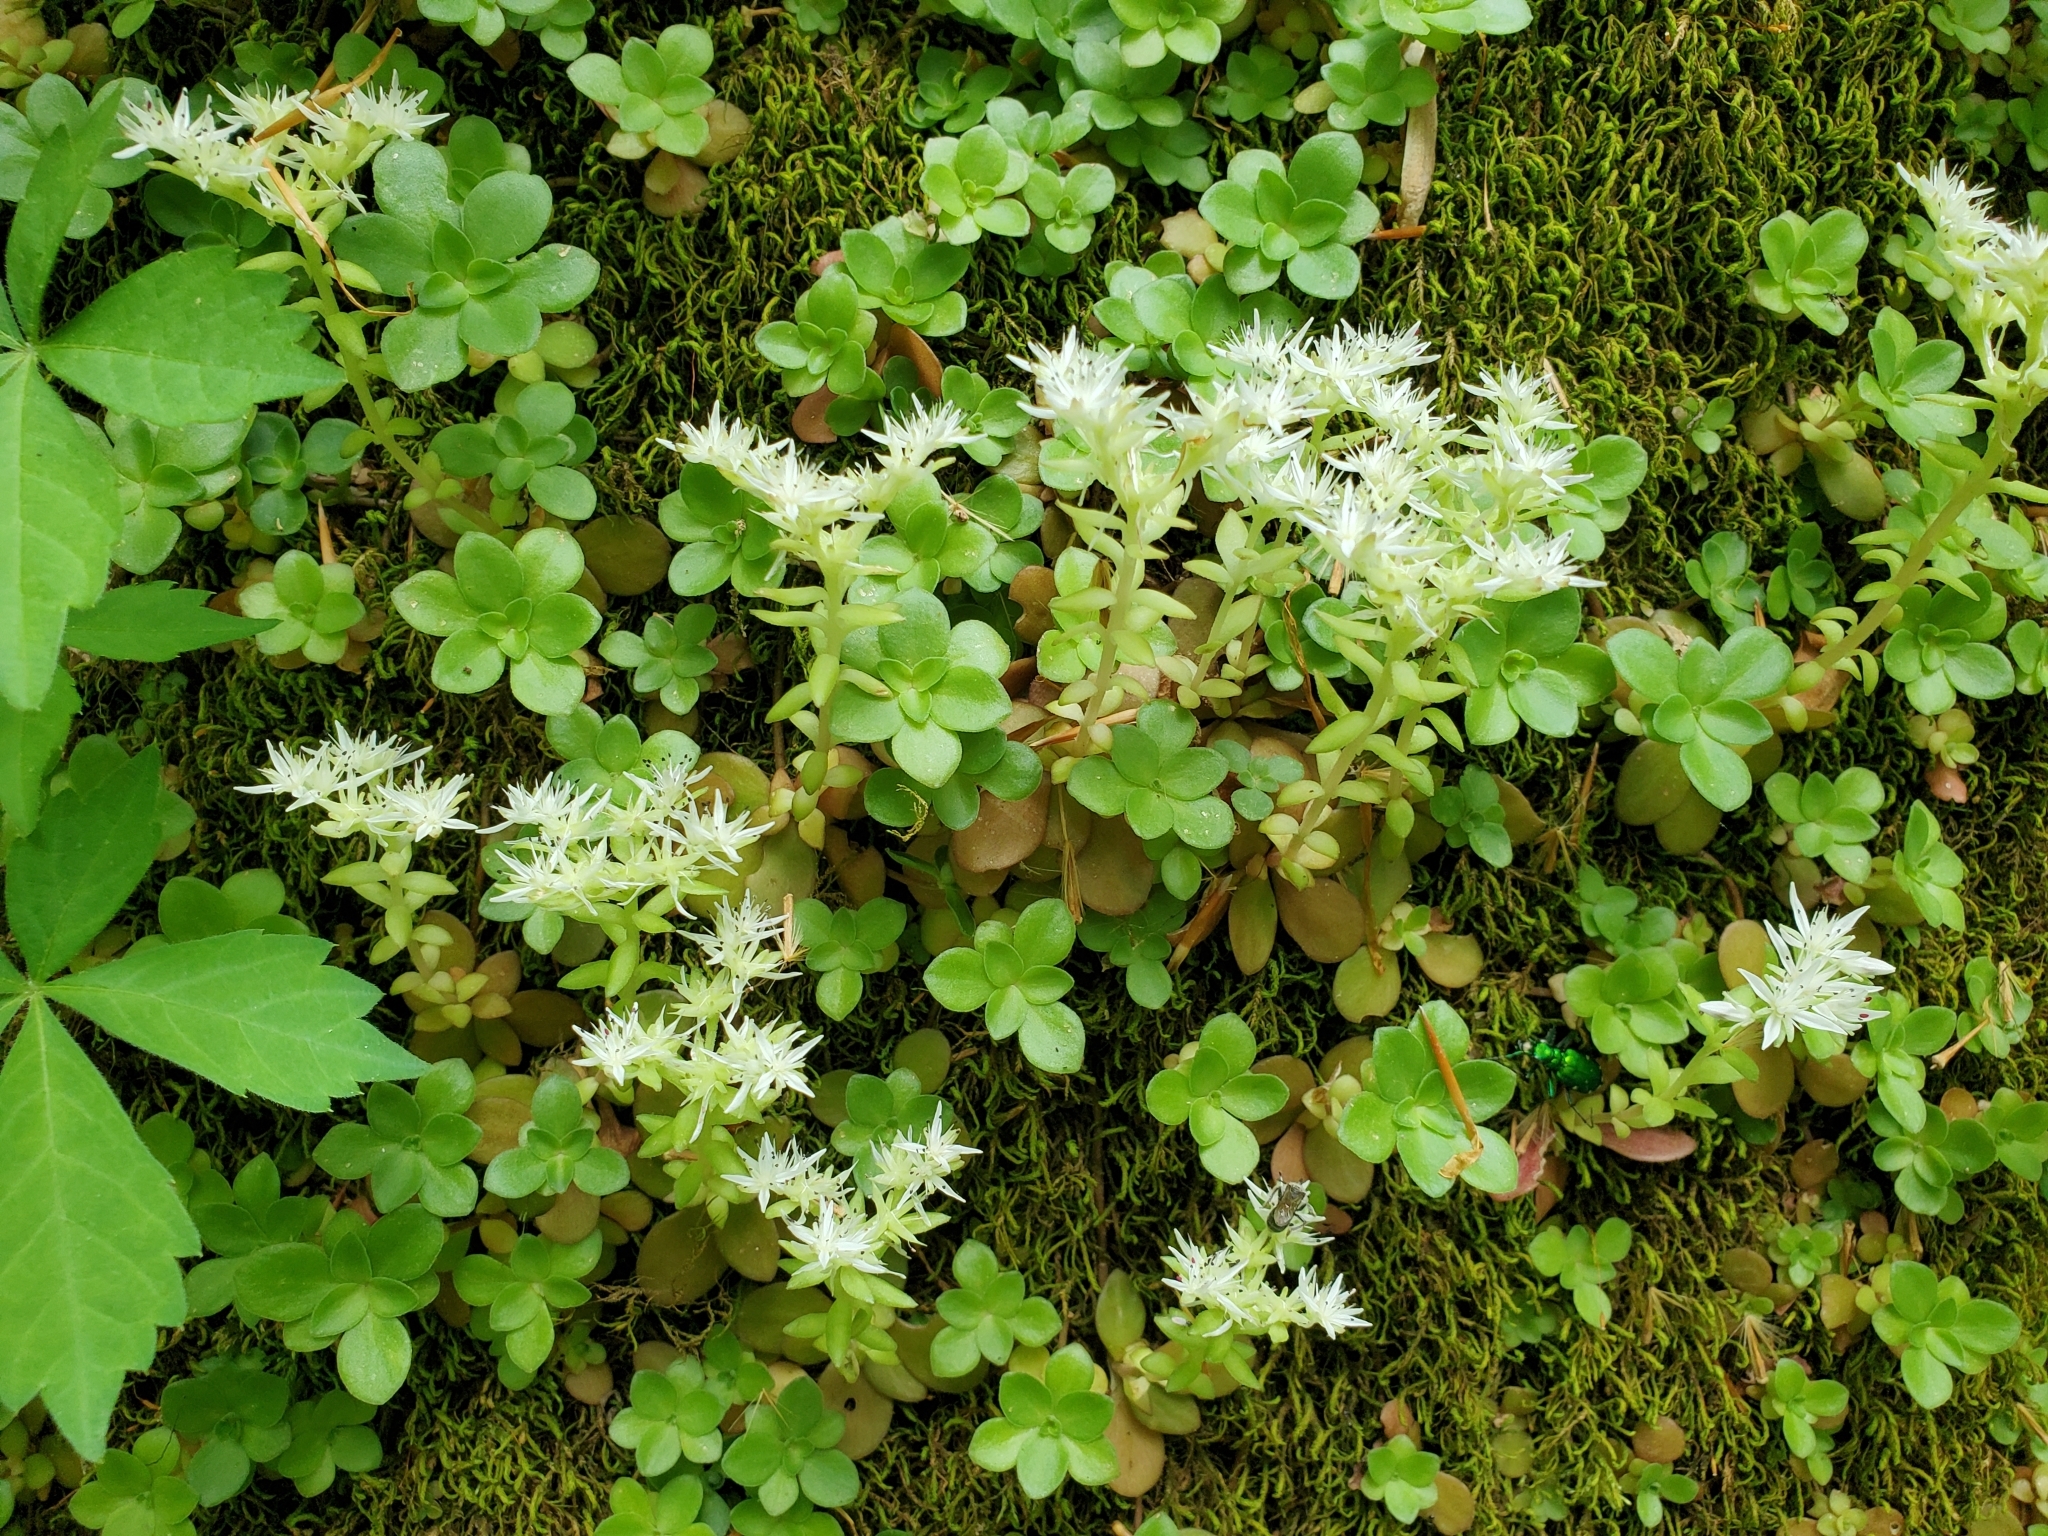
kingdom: Plantae
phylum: Tracheophyta
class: Magnoliopsida
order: Saxifragales
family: Crassulaceae
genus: Sedum
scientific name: Sedum ternatum
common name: Wild stonecrop
